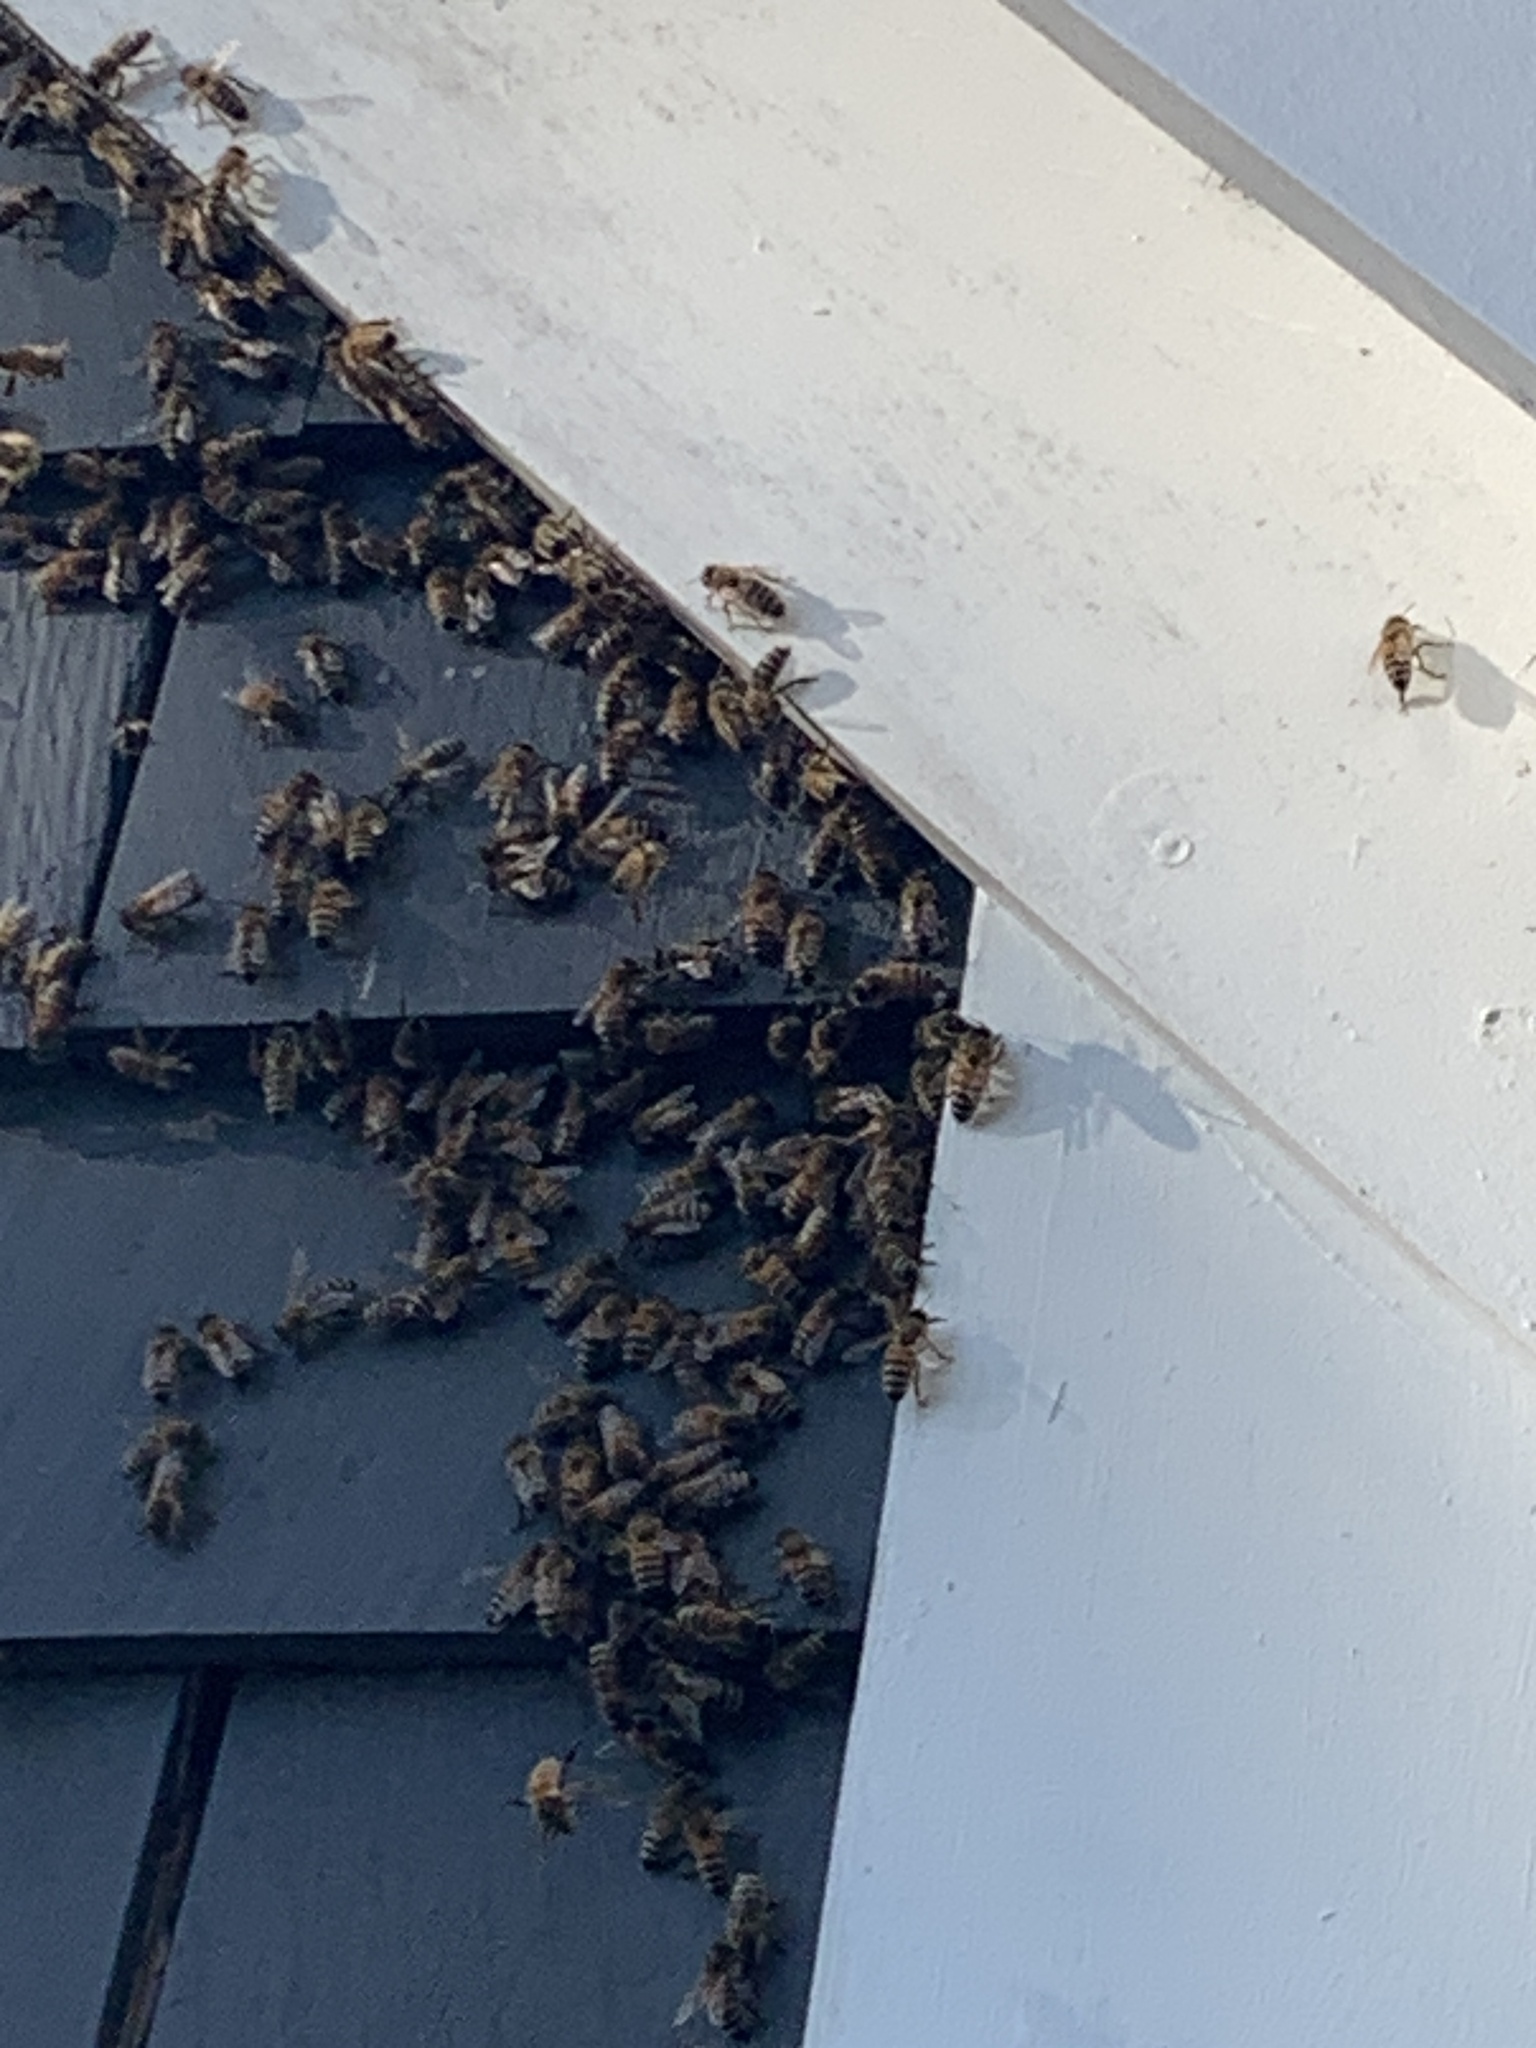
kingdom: Animalia
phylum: Arthropoda
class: Insecta
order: Hymenoptera
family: Apidae
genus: Apis
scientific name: Apis mellifera
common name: Honey bee
